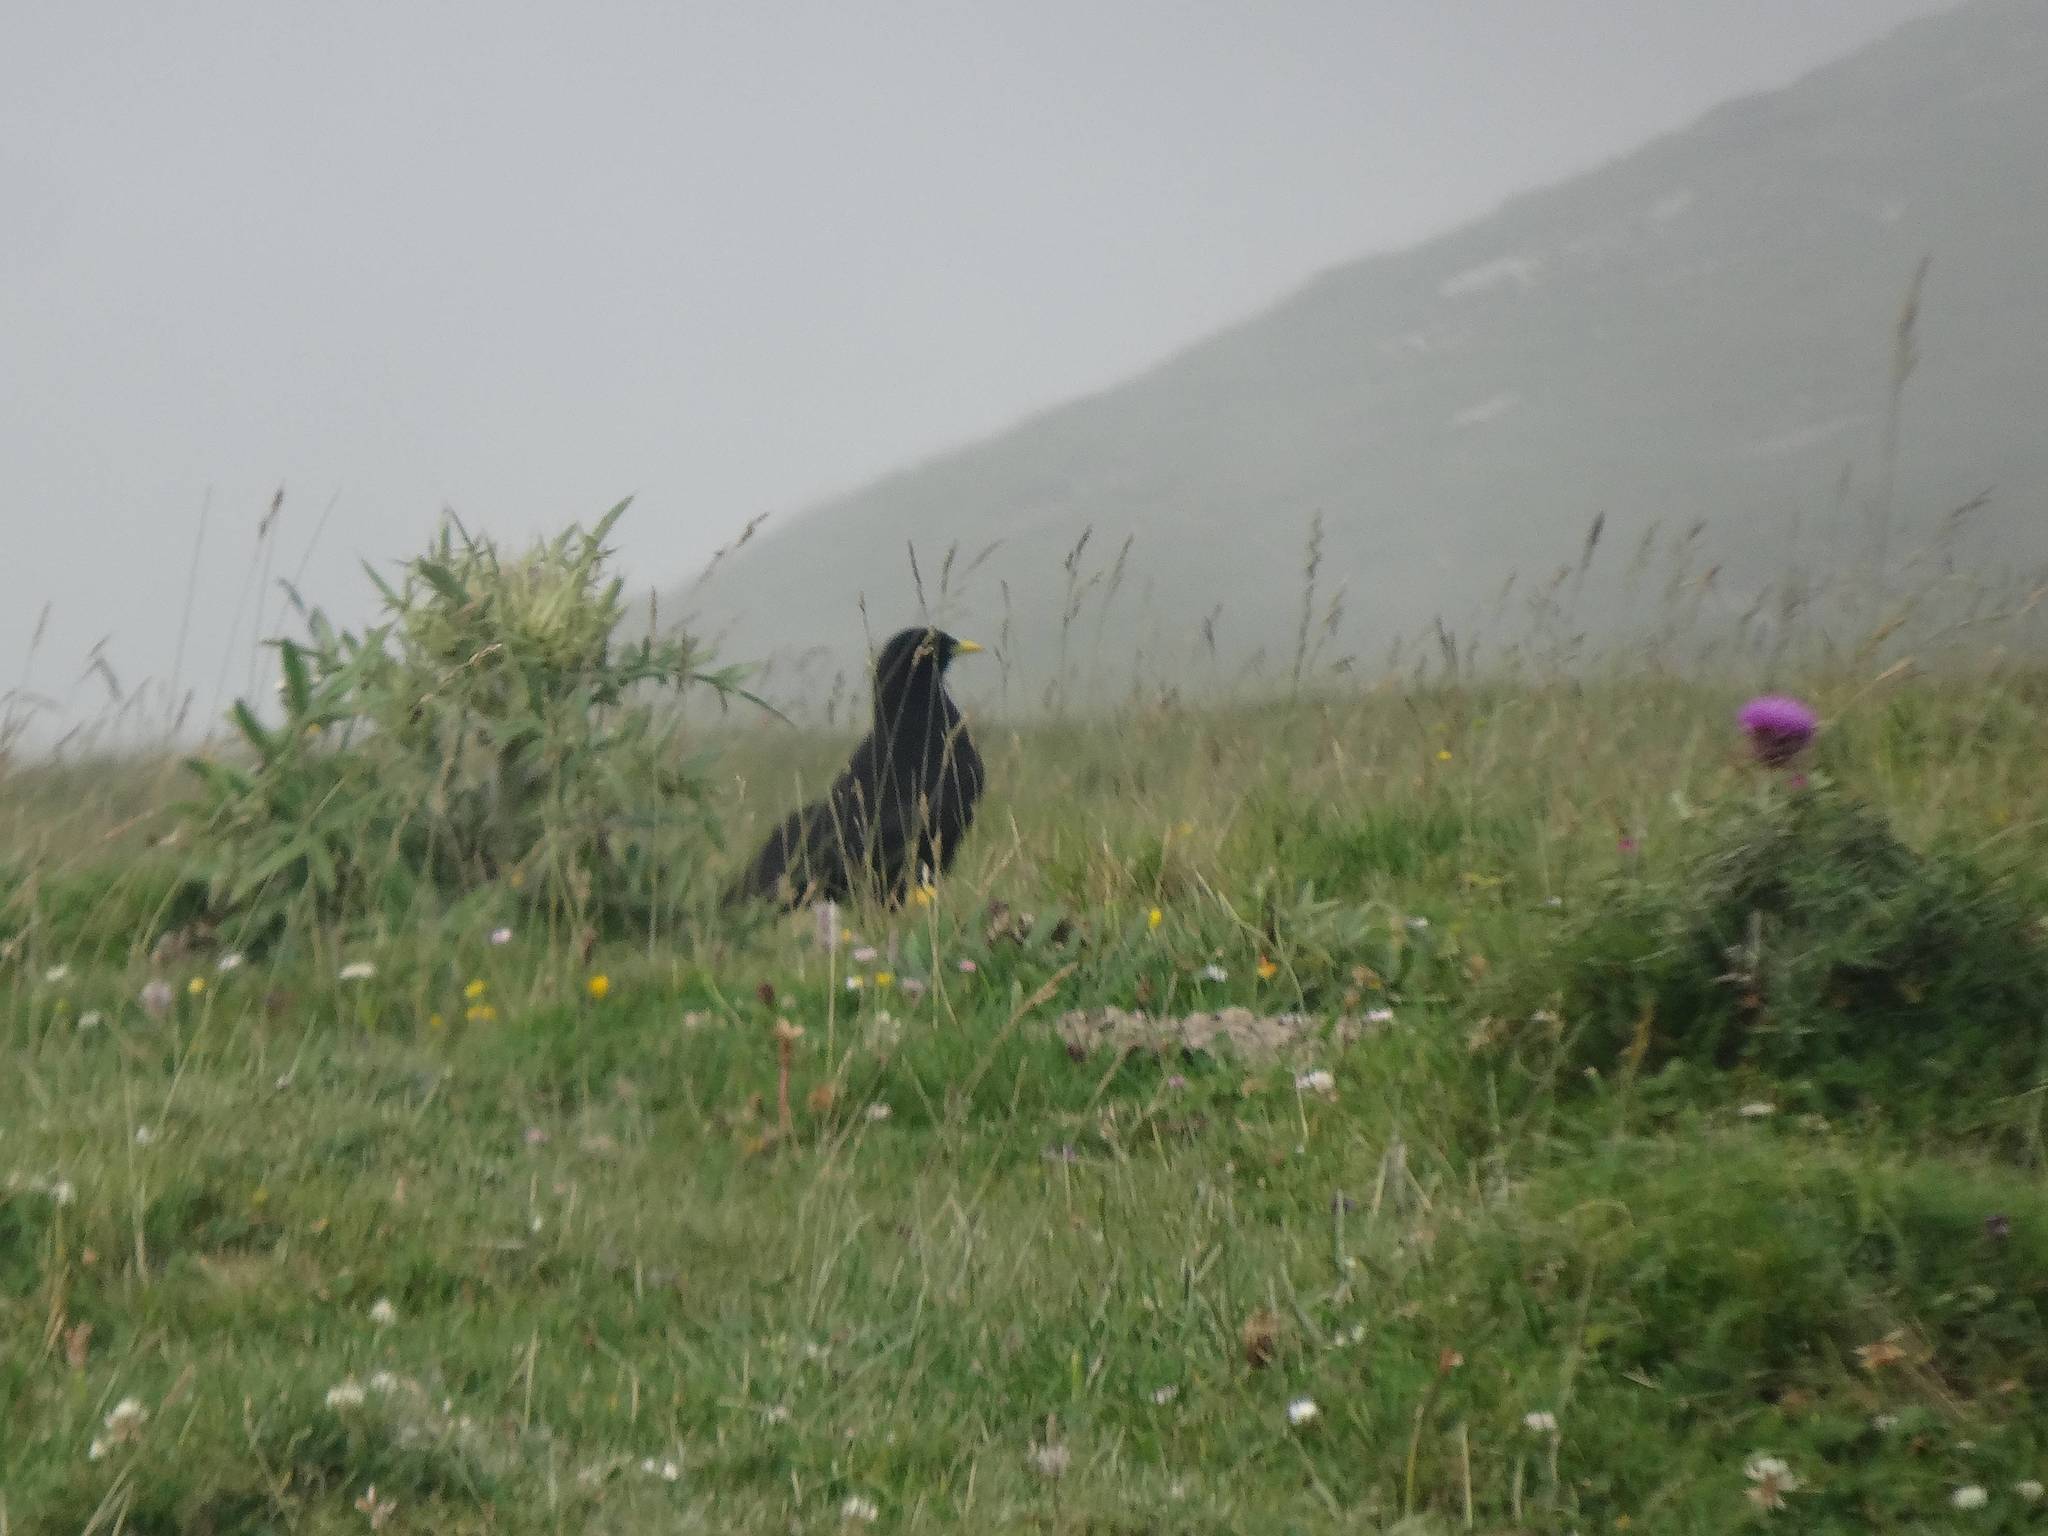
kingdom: Animalia
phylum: Chordata
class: Aves
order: Passeriformes
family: Corvidae
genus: Pyrrhocorax
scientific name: Pyrrhocorax graculus
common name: Alpine chough
